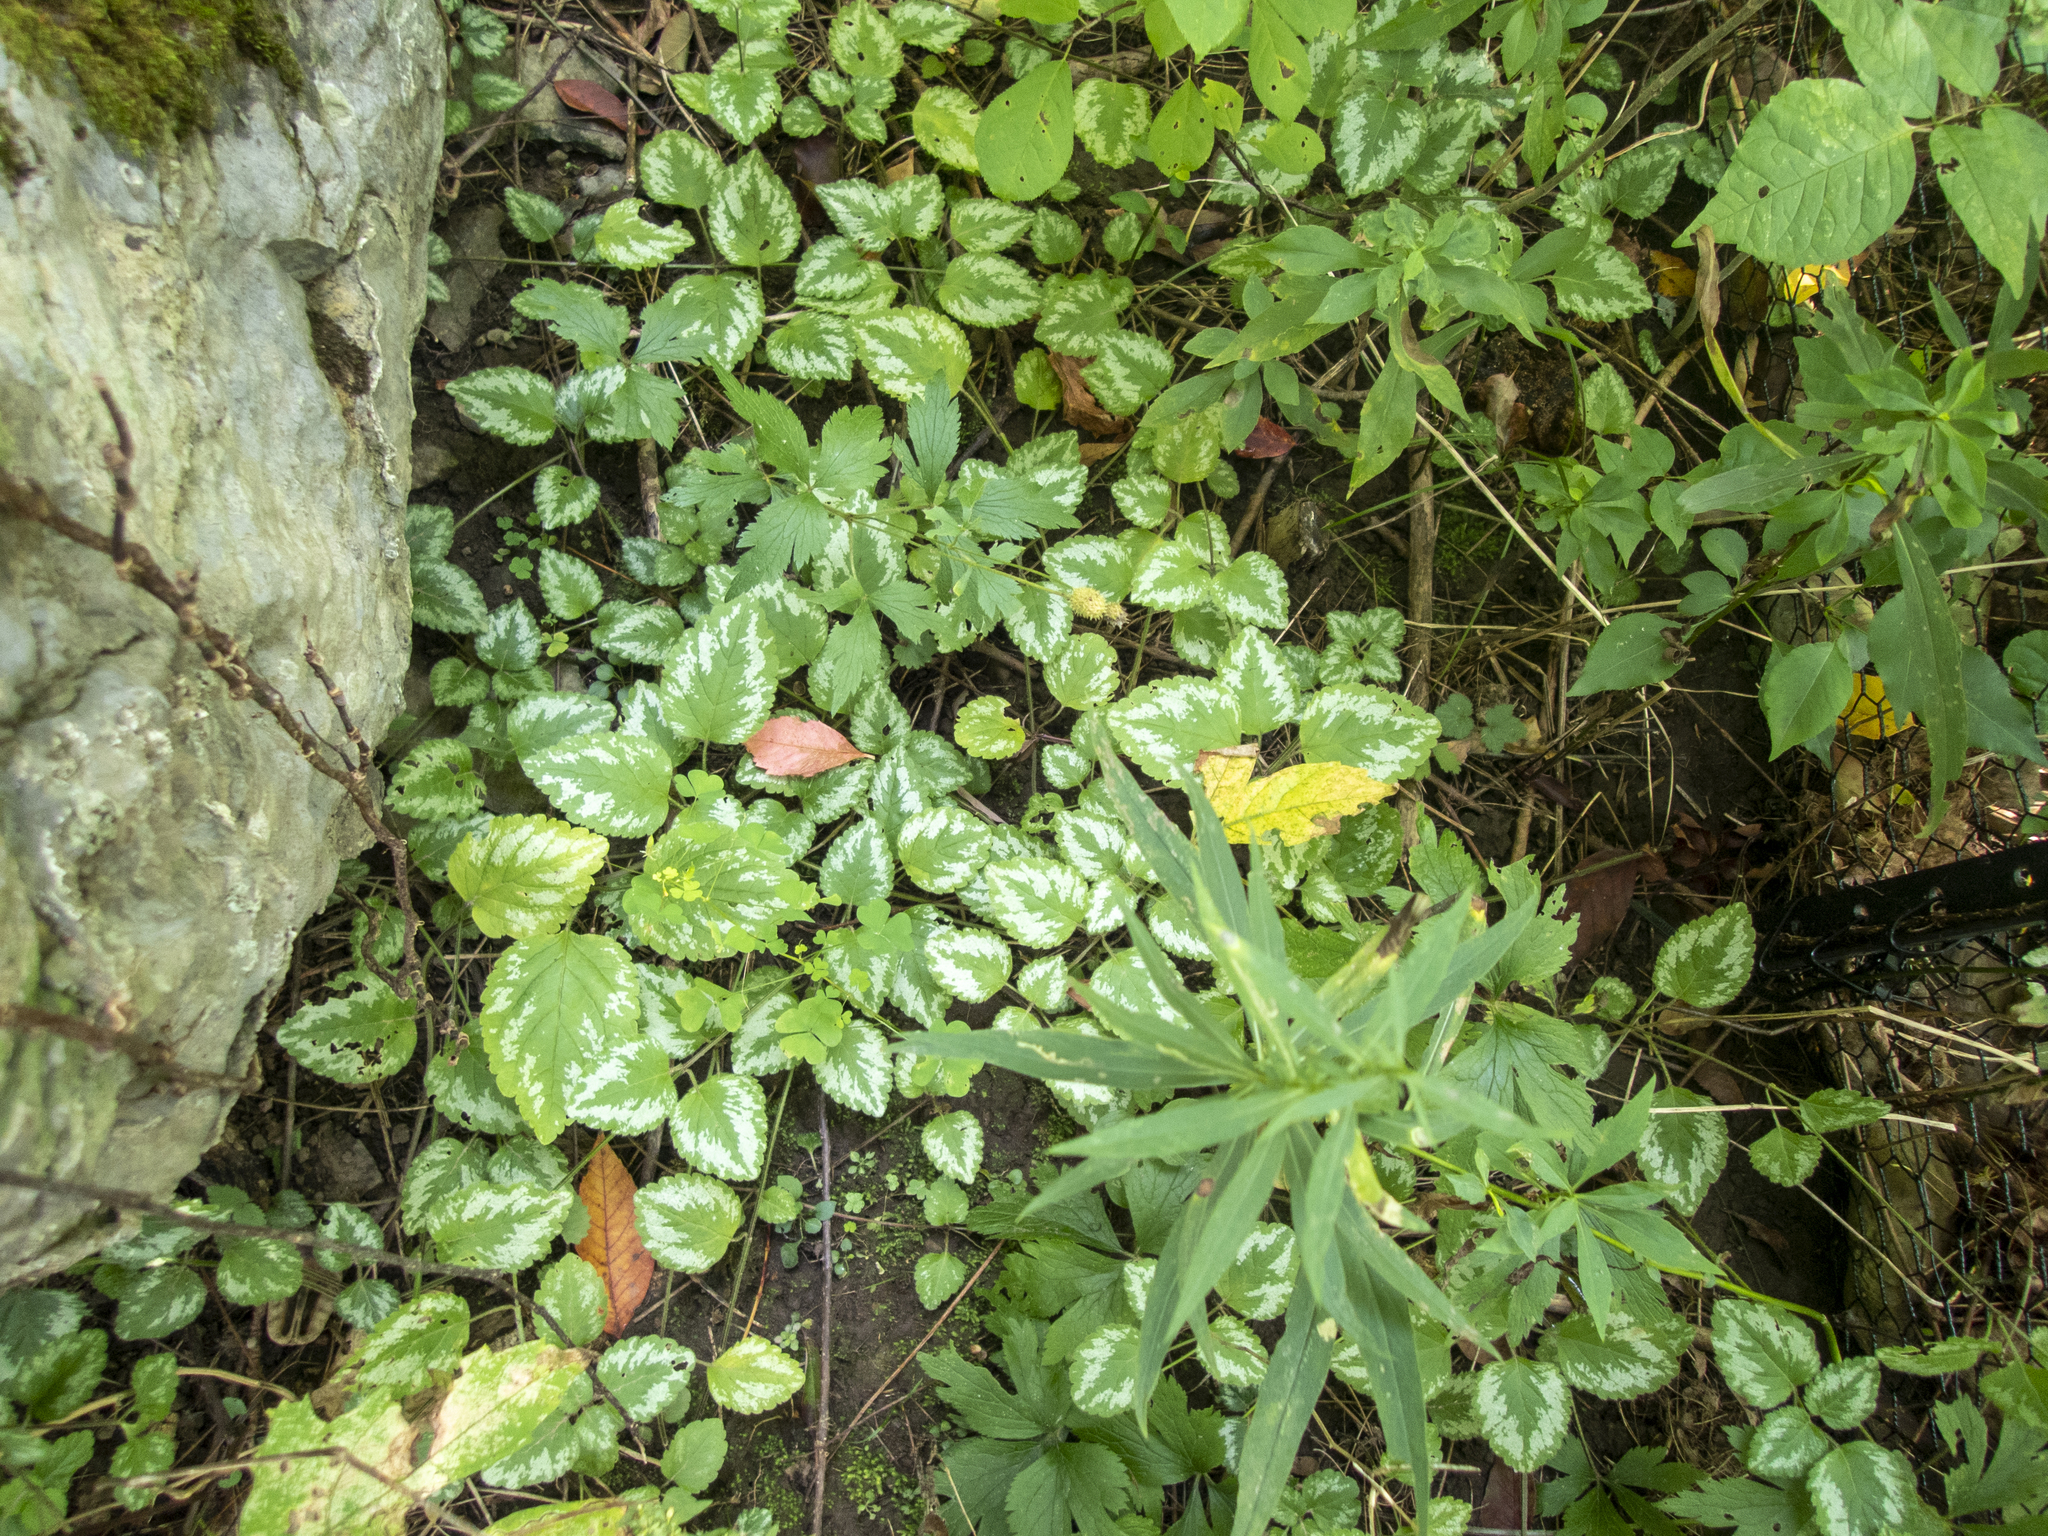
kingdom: Plantae
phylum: Tracheophyta
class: Magnoliopsida
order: Lamiales
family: Lamiaceae
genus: Lamium
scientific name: Lamium galeobdolon
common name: Yellow archangel
